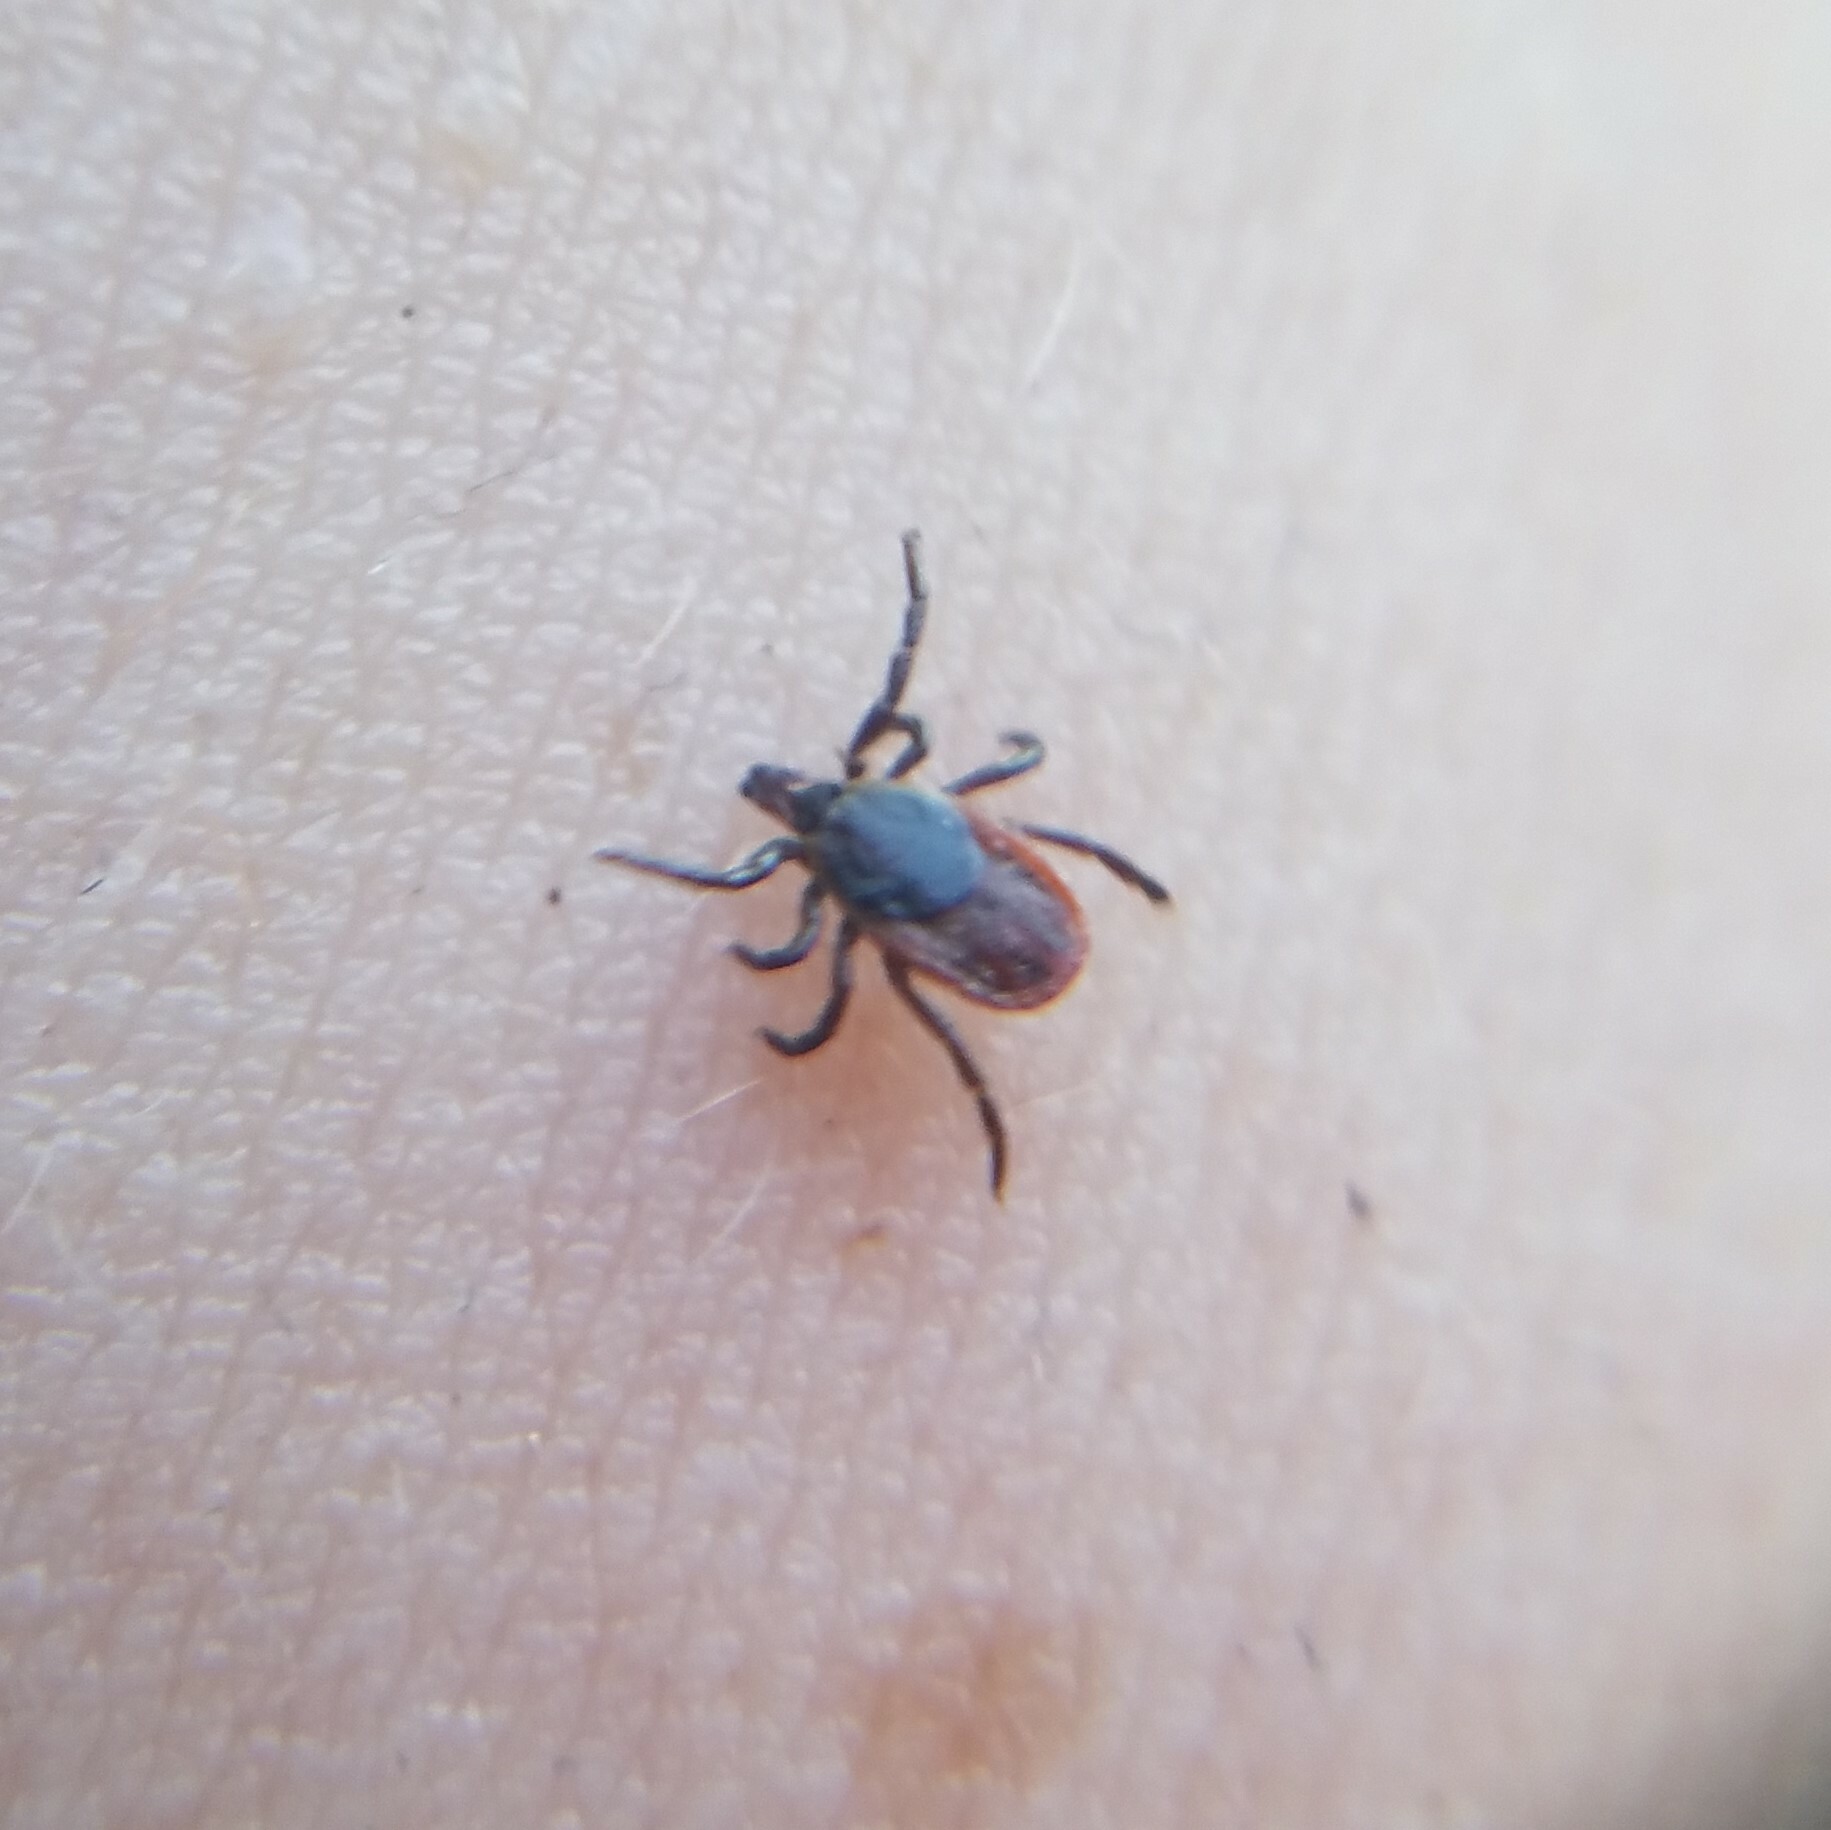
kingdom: Animalia
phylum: Arthropoda
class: Arachnida
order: Ixodida
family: Ixodidae
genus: Ixodes
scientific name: Ixodes scapularis
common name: Black legged tick
